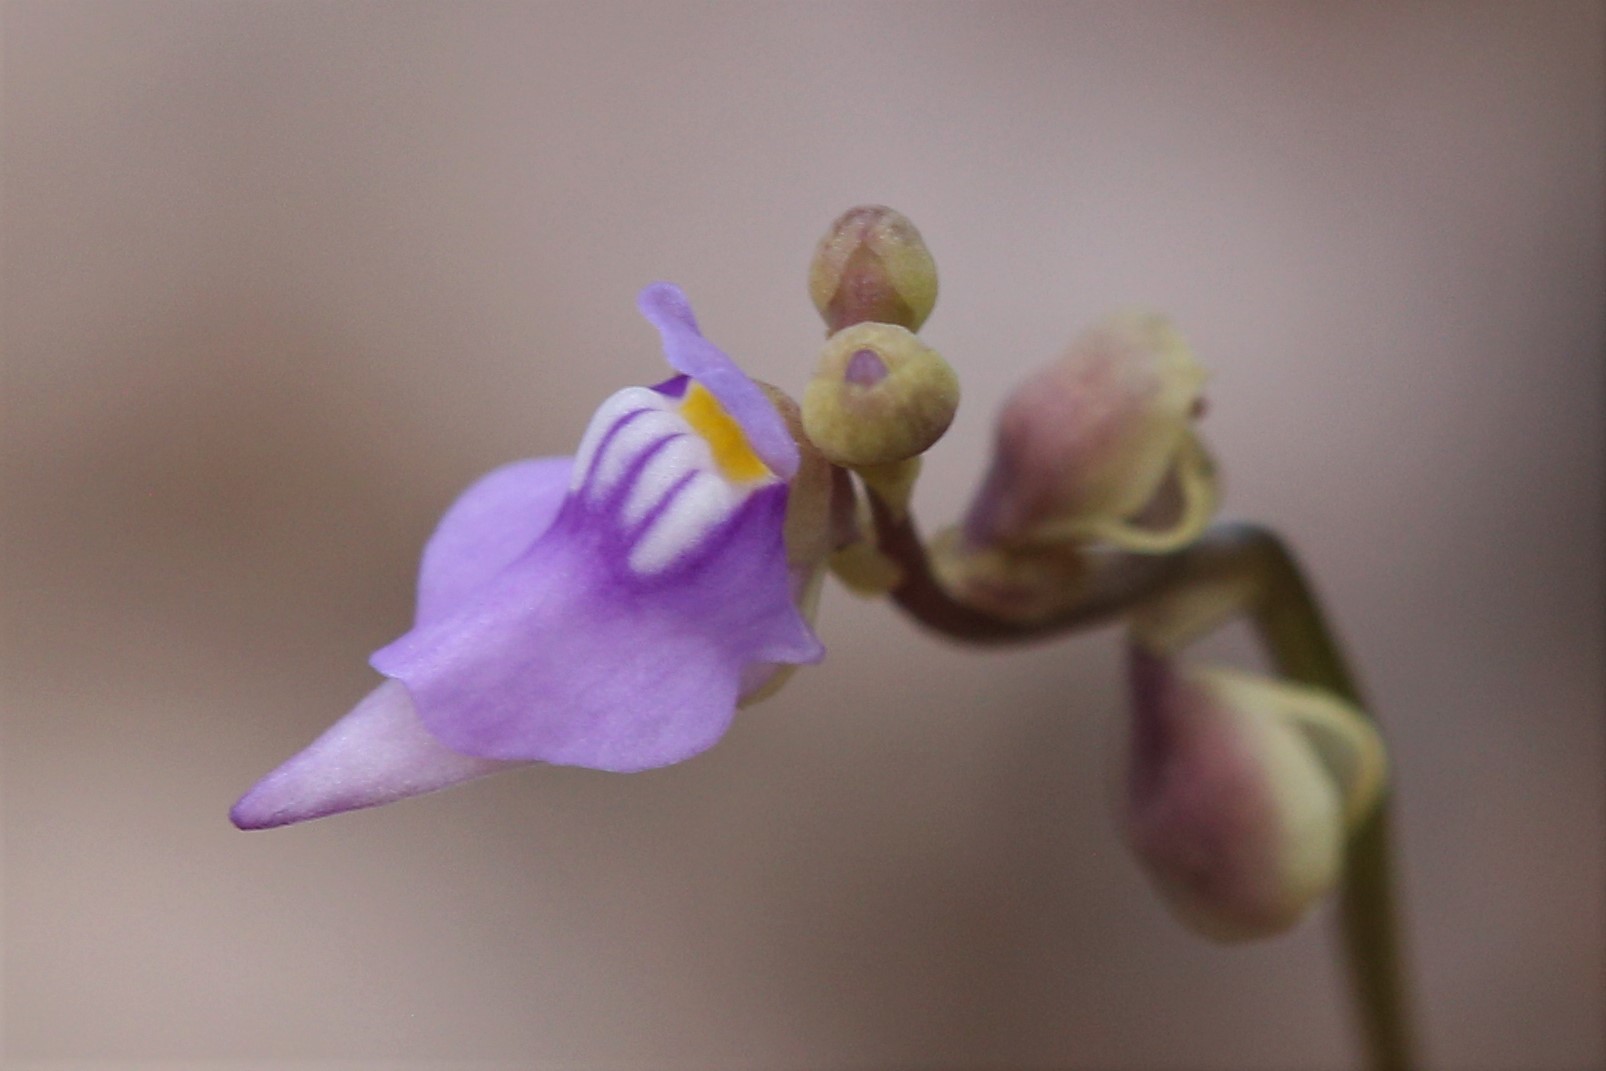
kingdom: Plantae
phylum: Tracheophyta
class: Magnoliopsida
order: Lamiales
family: Lentibulariaceae
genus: Utricularia
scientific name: Utricularia caerulea
